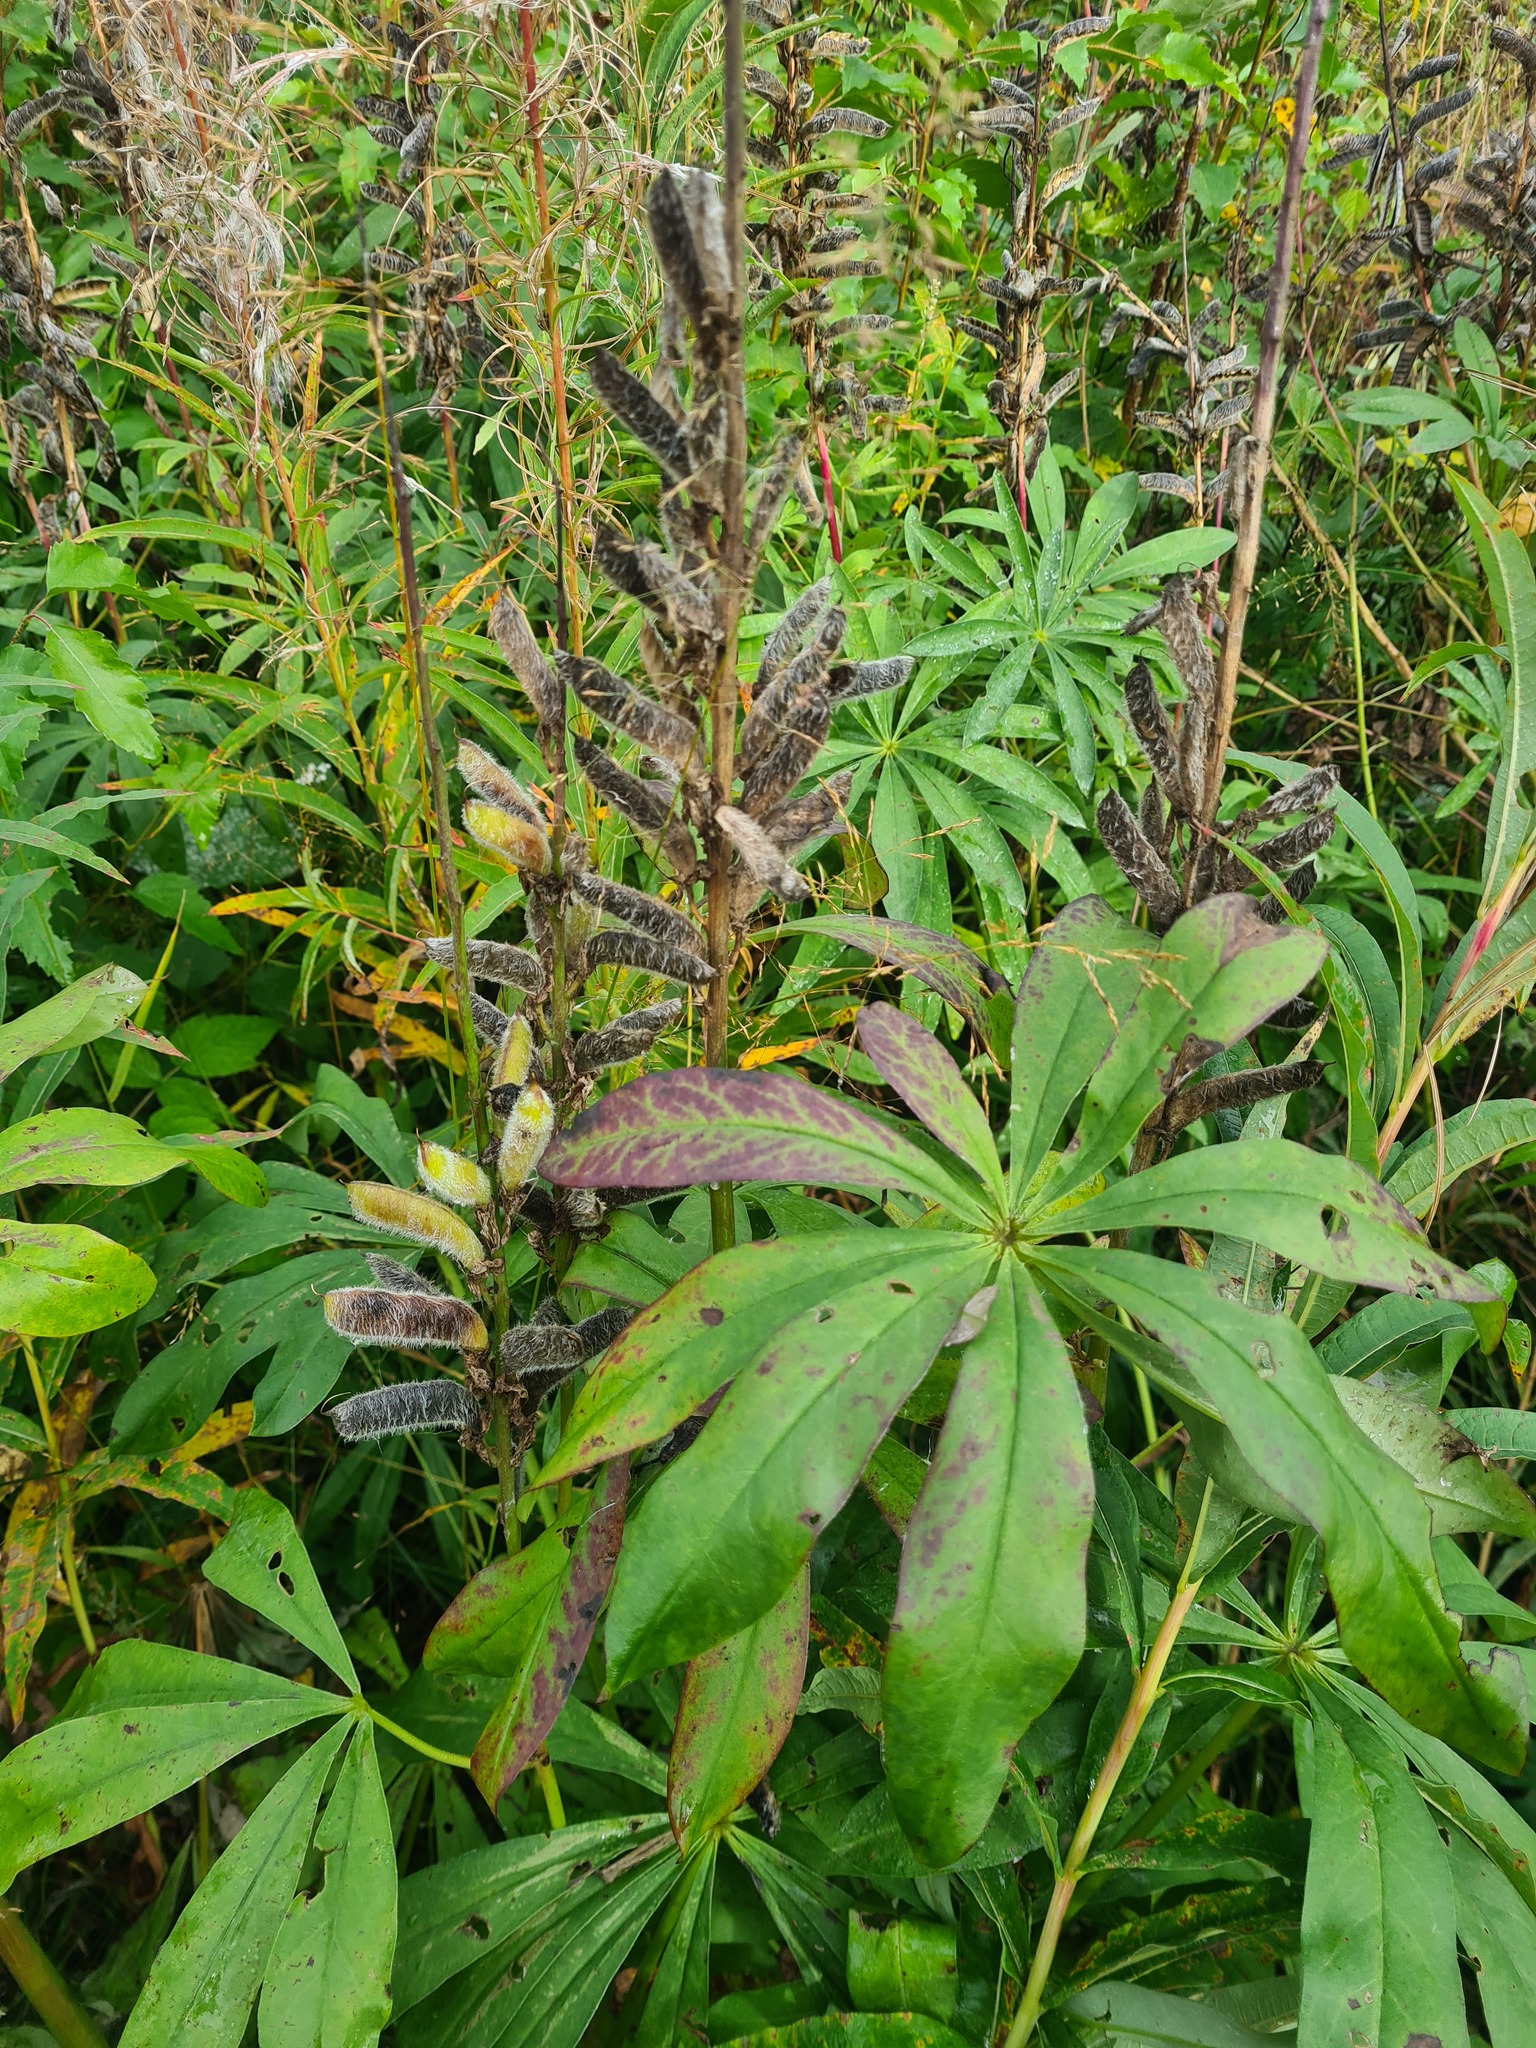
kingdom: Plantae
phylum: Tracheophyta
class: Magnoliopsida
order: Fabales
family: Fabaceae
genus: Lupinus
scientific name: Lupinus polyphyllus
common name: Garden lupin
